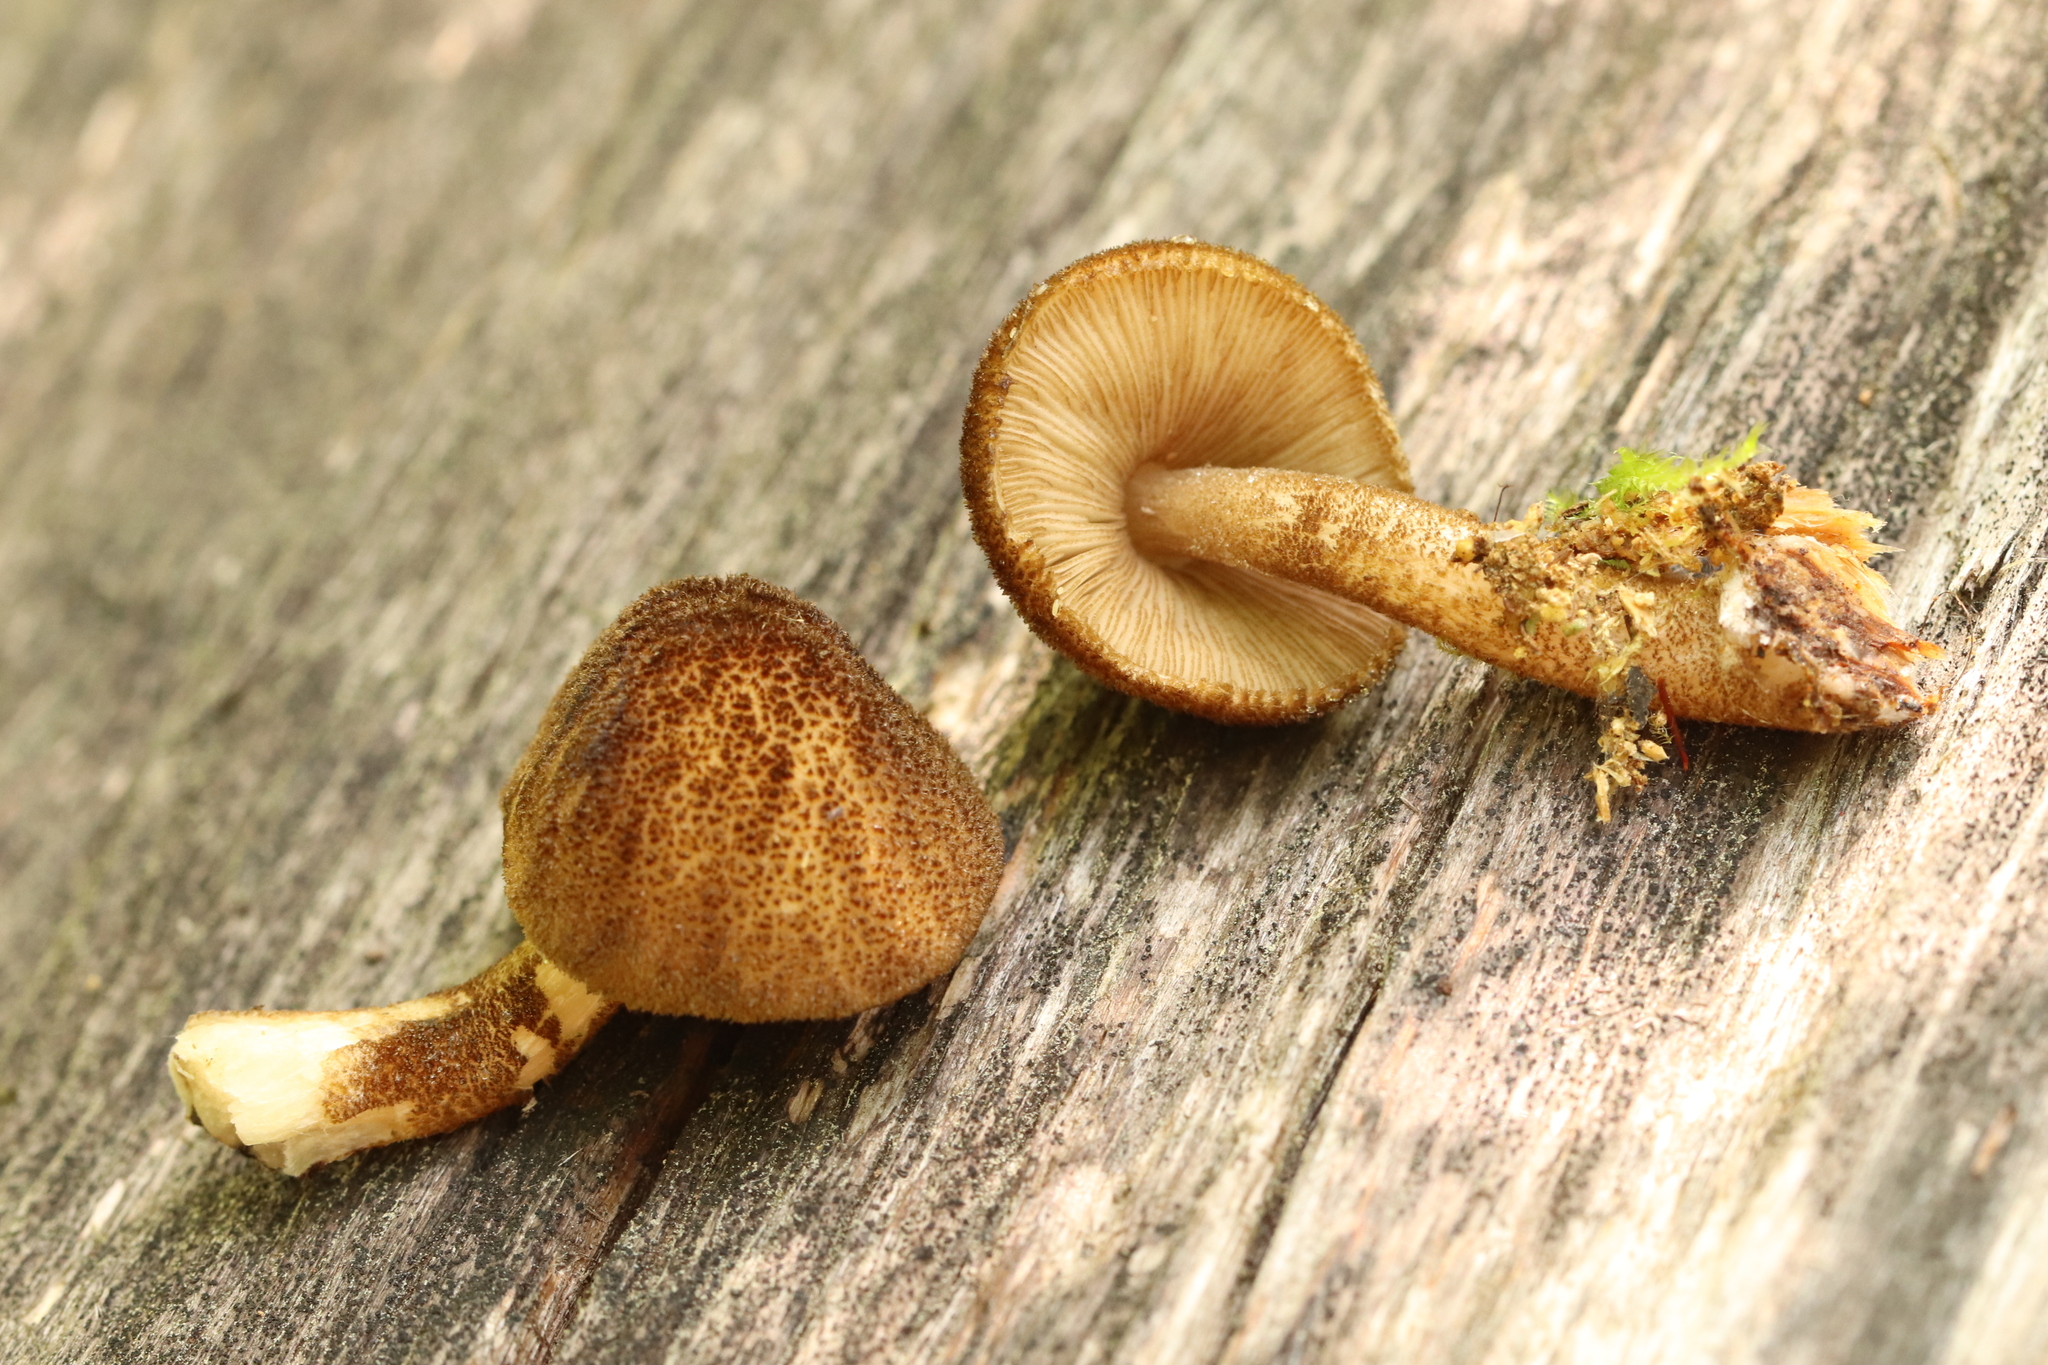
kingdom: Fungi
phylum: Basidiomycota
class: Agaricomycetes
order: Agaricales
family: Pluteaceae
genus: Pluteus
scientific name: Pluteus umbrosus
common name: Velvet shield
